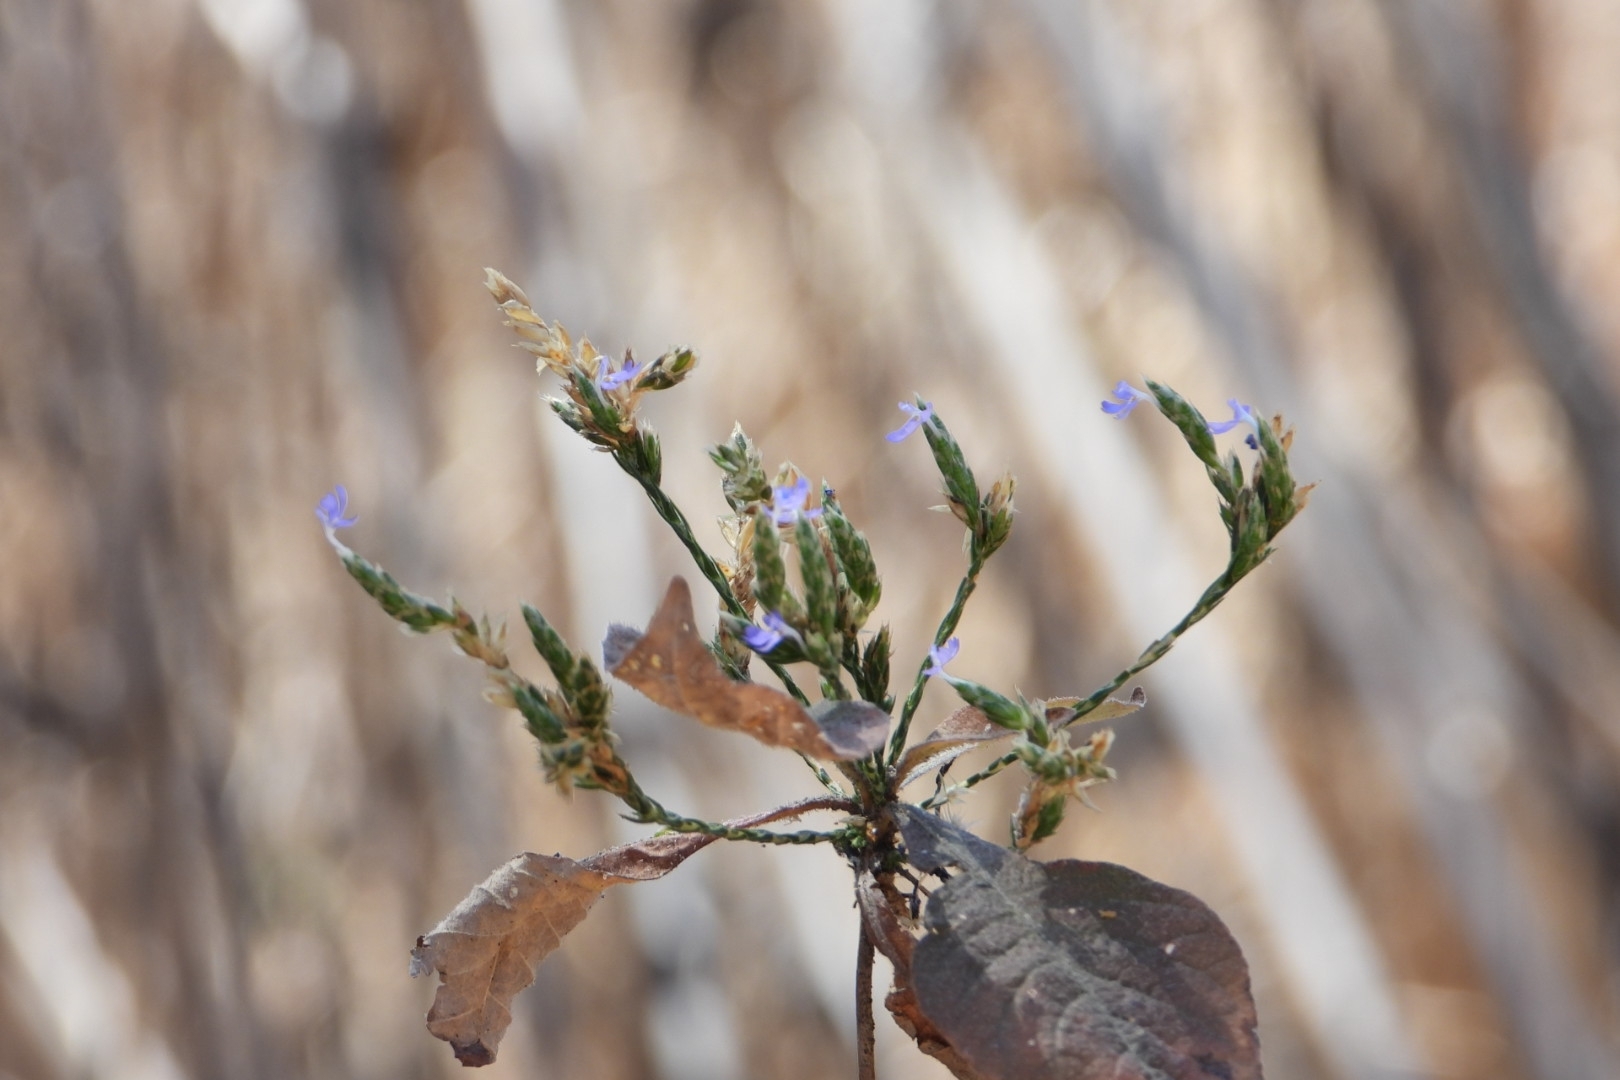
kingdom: Plantae
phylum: Tracheophyta
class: Magnoliopsida
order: Lamiales
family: Acanthaceae
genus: Elytraria
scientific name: Elytraria imbricata
